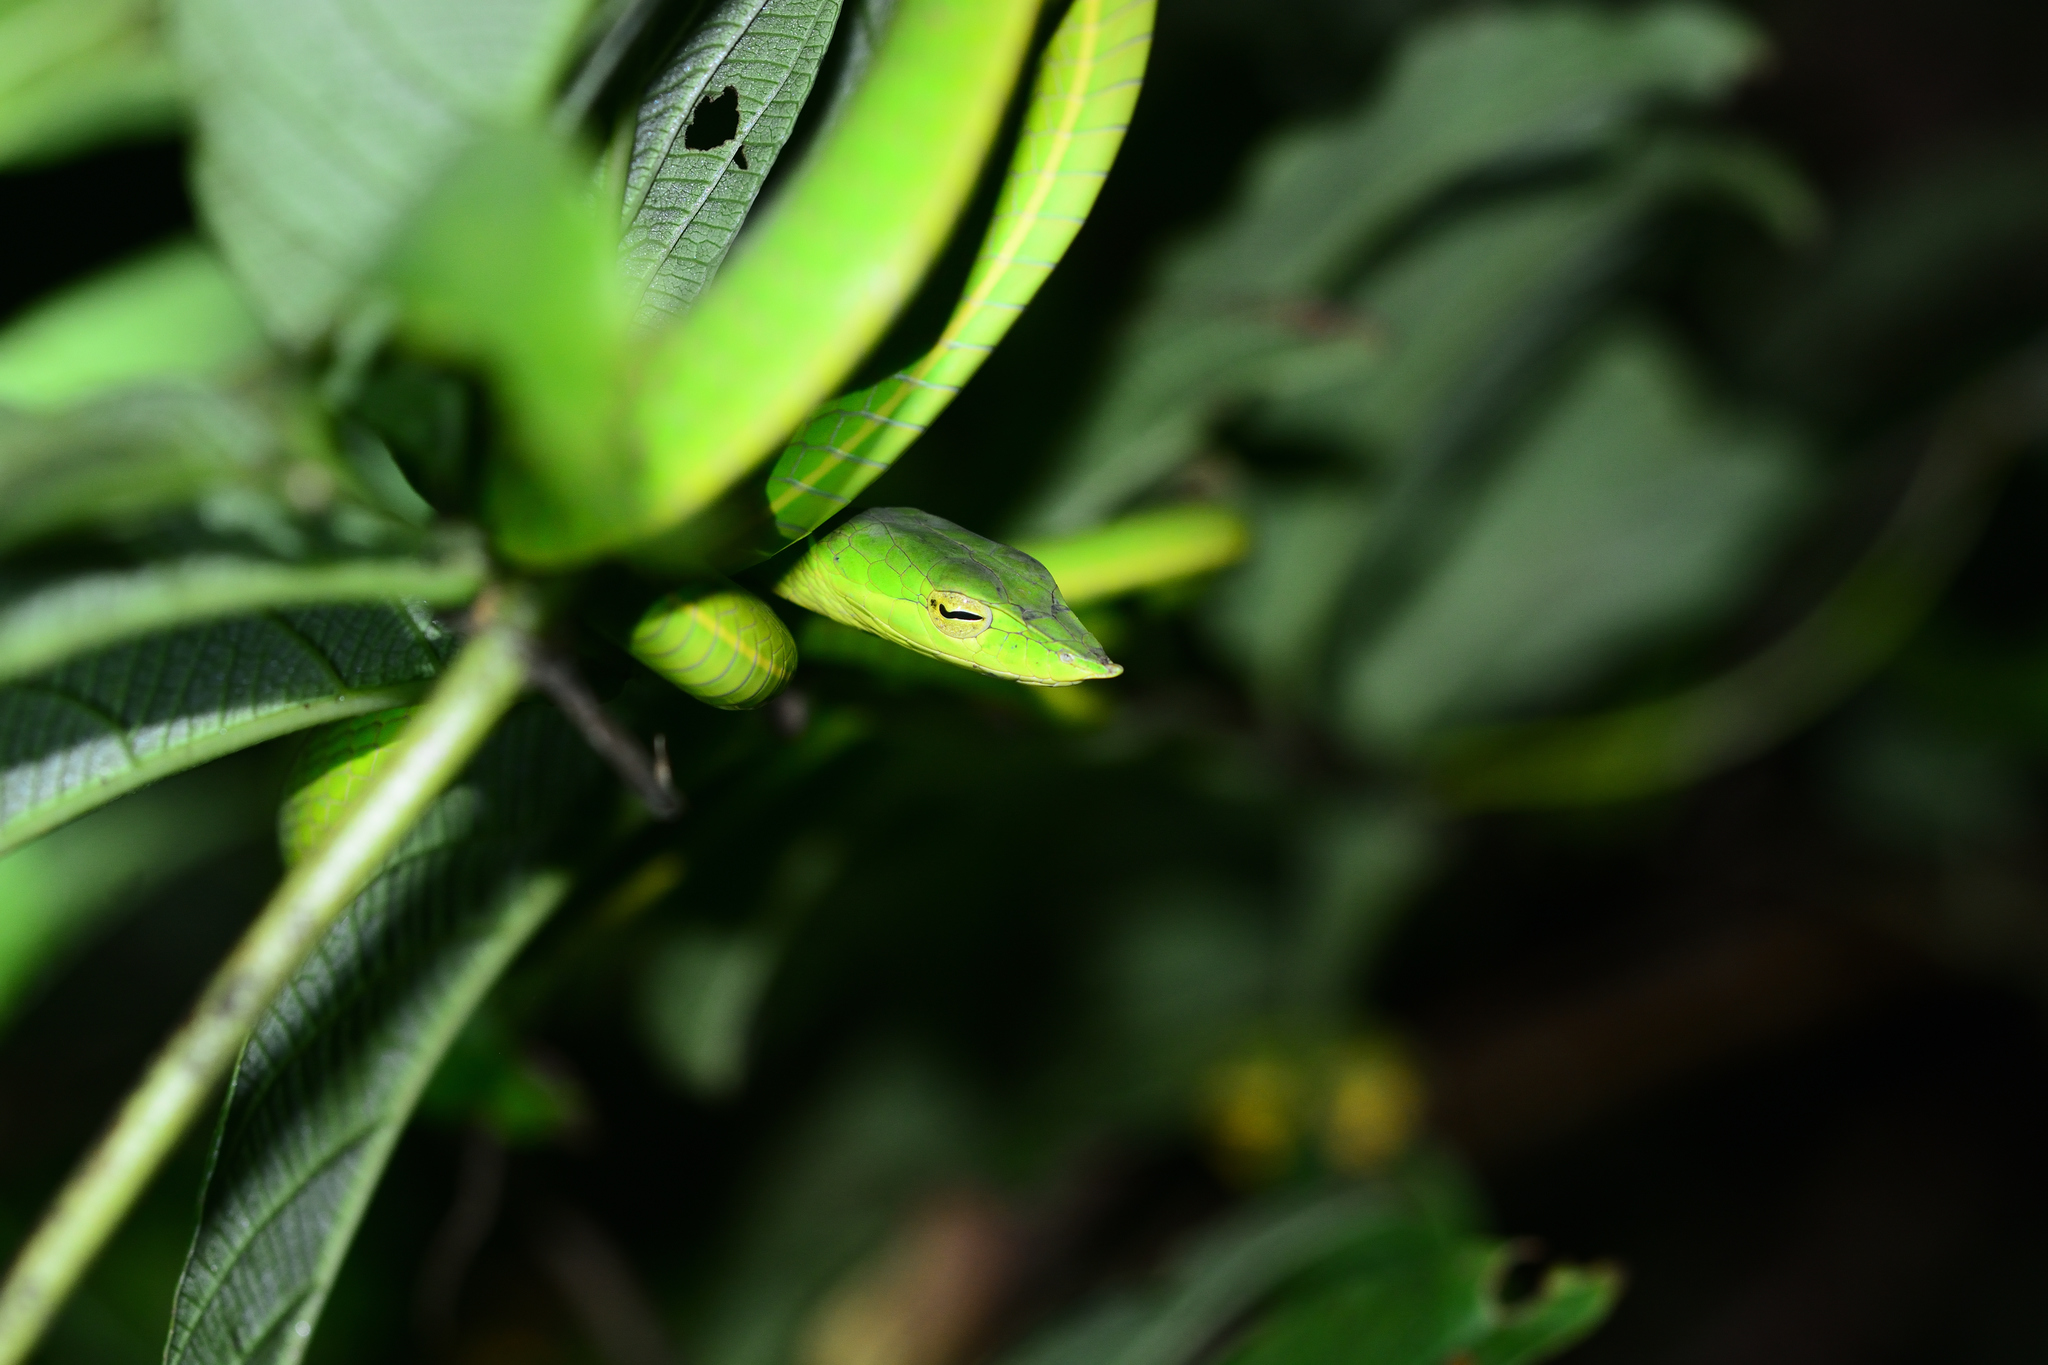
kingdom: Animalia
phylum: Chordata
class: Squamata
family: Colubridae
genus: Ahaetulla
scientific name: Ahaetulla farnsworthi
